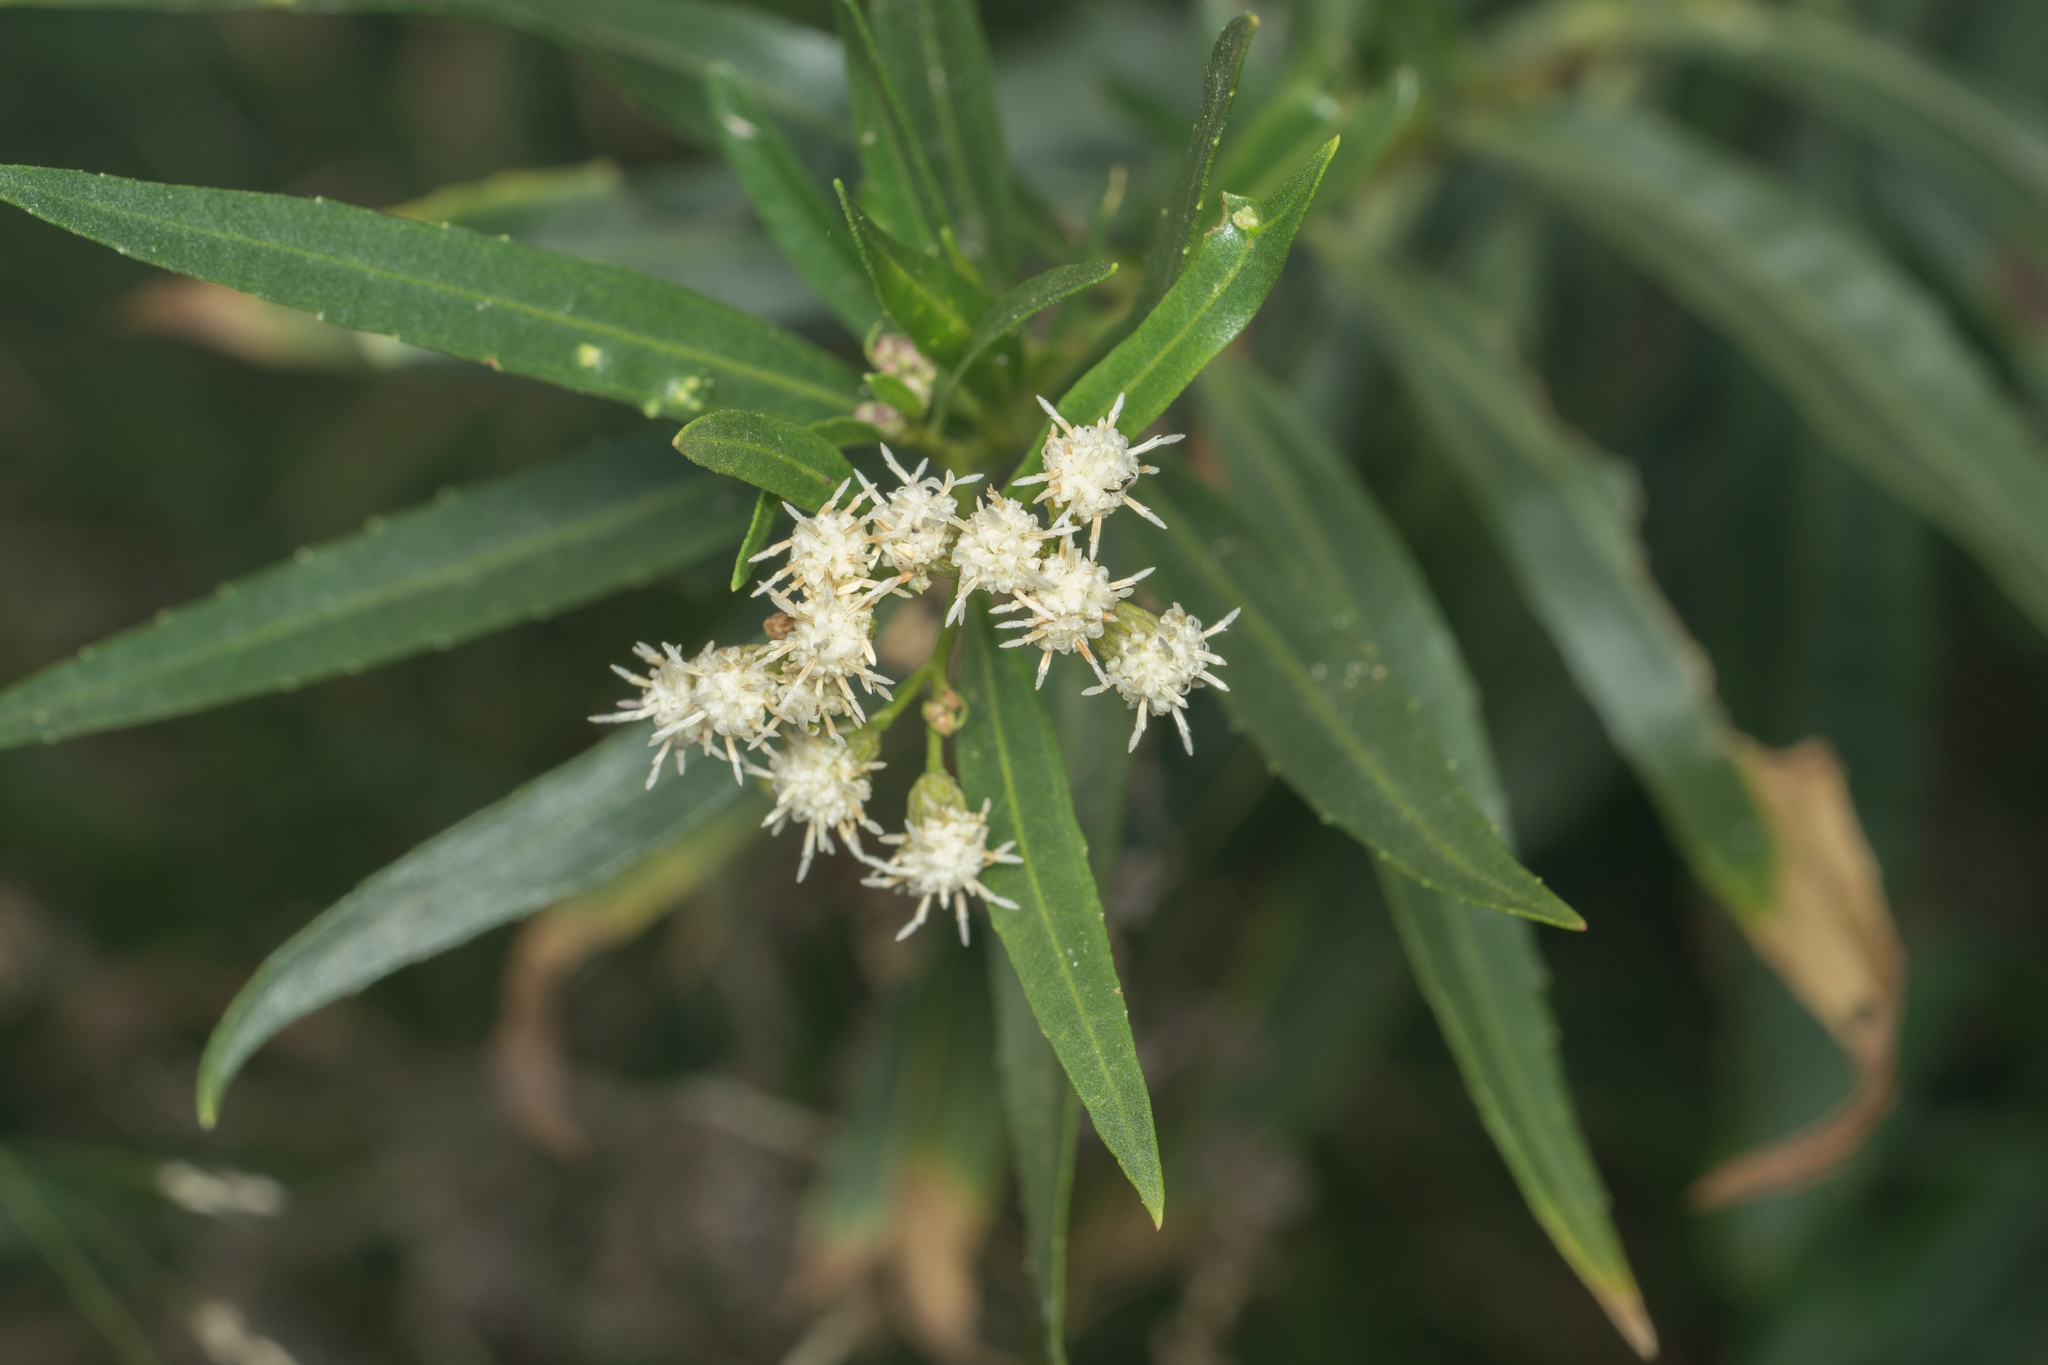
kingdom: Plantae
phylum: Tracheophyta
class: Magnoliopsida
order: Asterales
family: Asteraceae
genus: Baccharis
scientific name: Baccharis salicifolia
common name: Sticky baccharis
